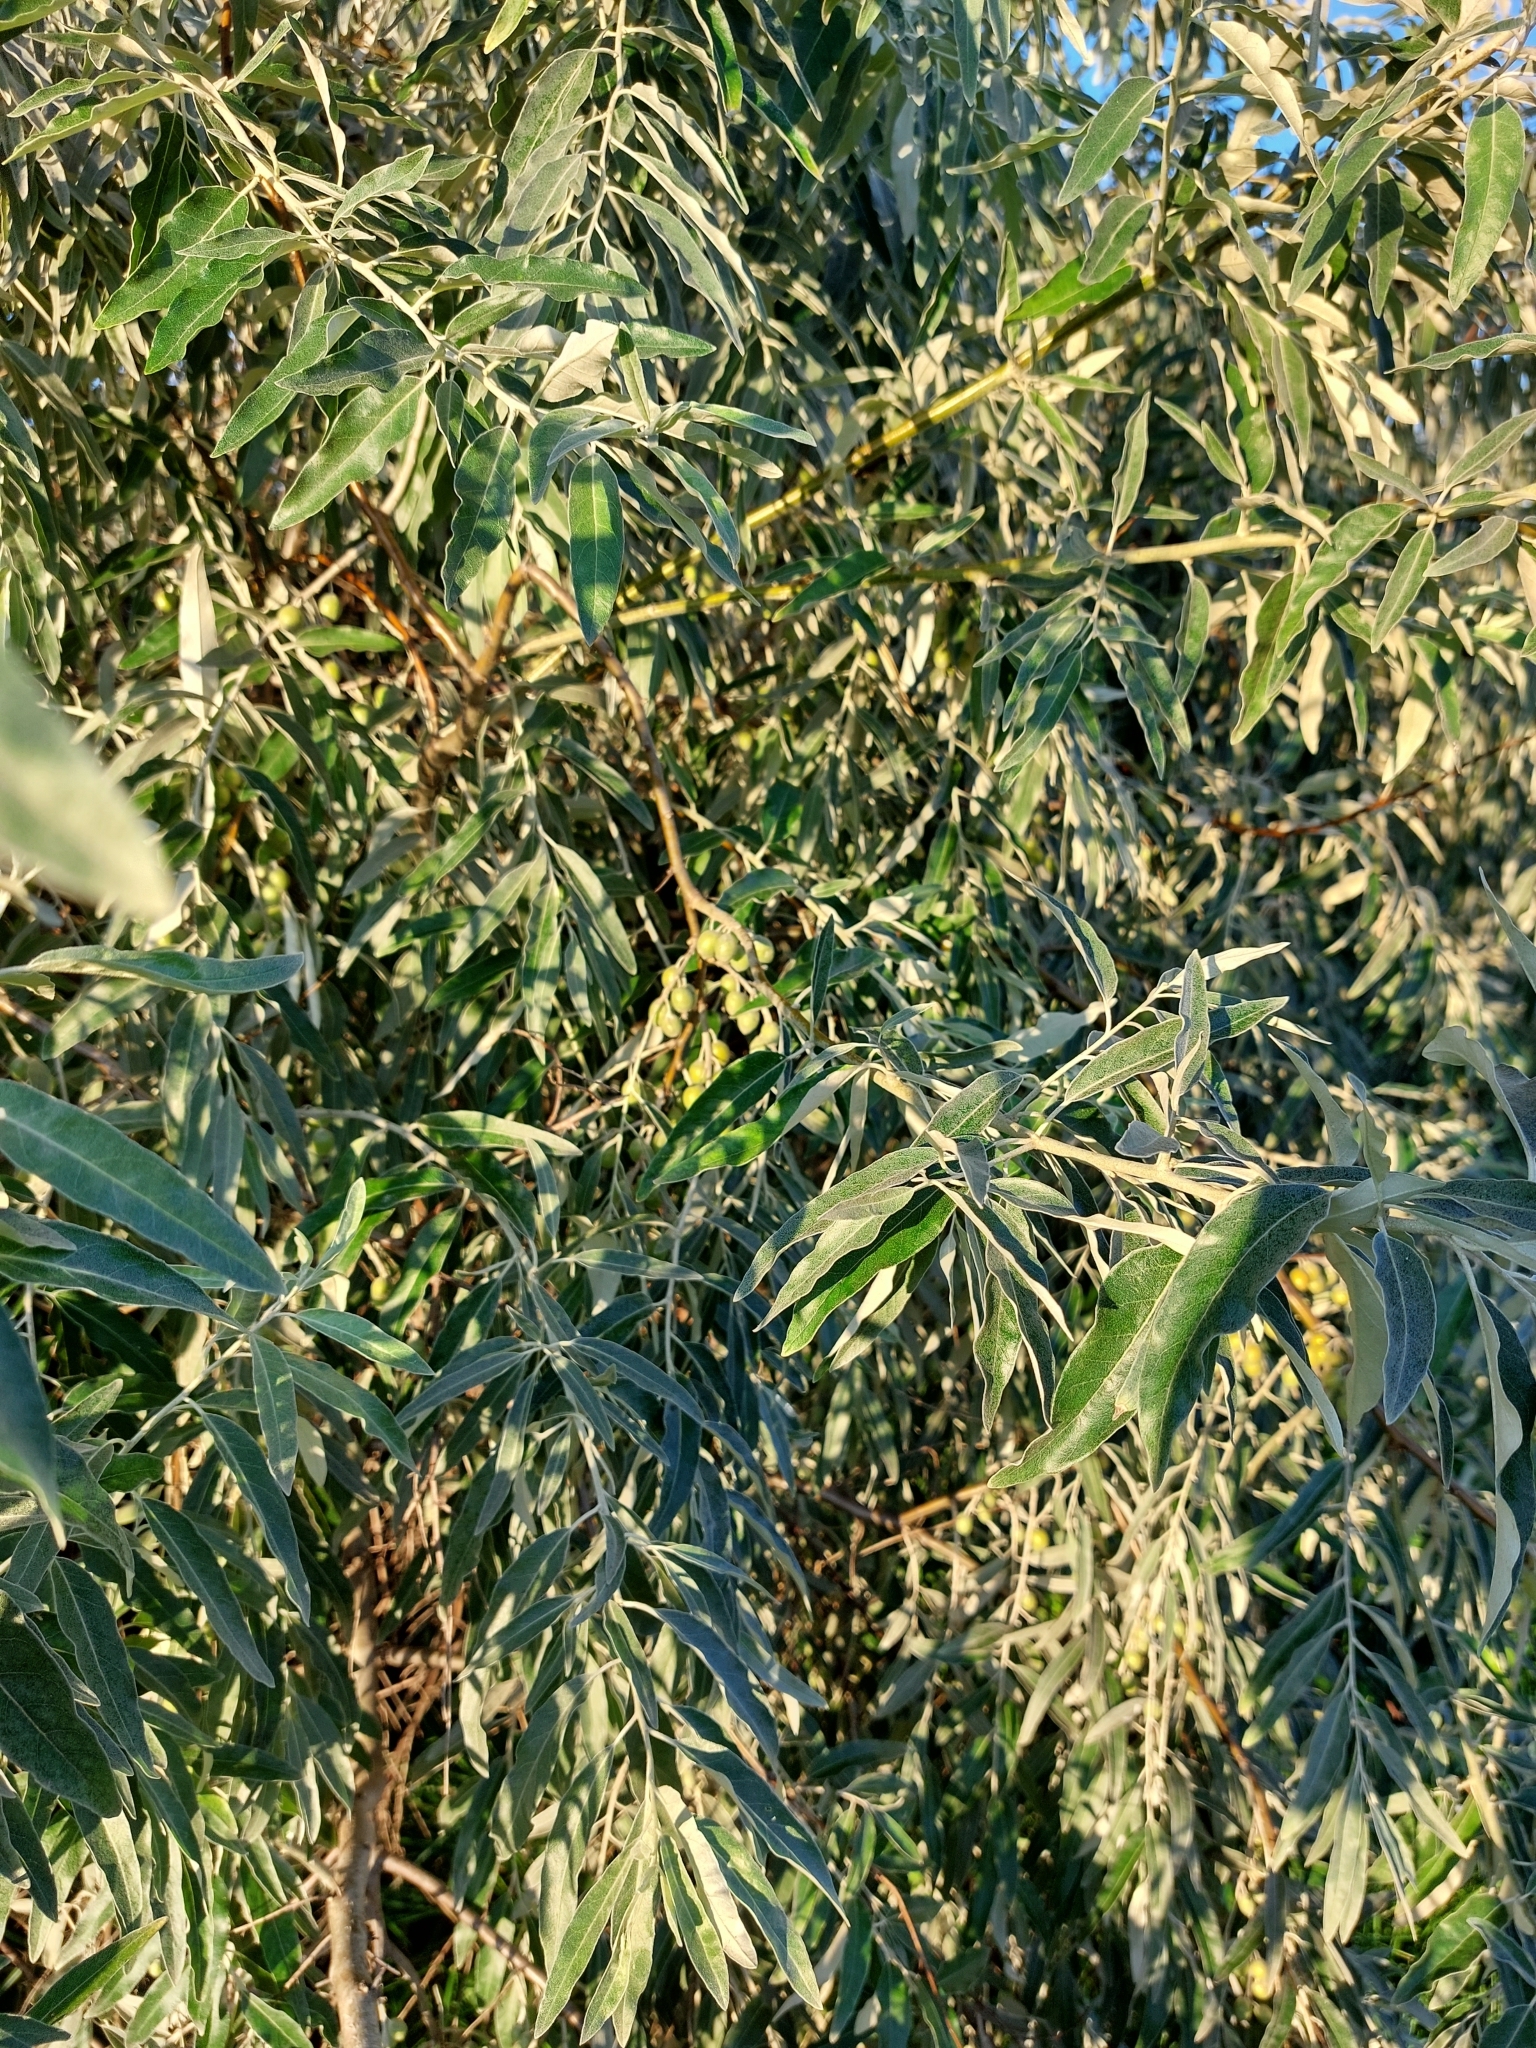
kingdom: Plantae
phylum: Tracheophyta
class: Magnoliopsida
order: Rosales
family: Elaeagnaceae
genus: Elaeagnus
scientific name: Elaeagnus angustifolia
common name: Russian olive
